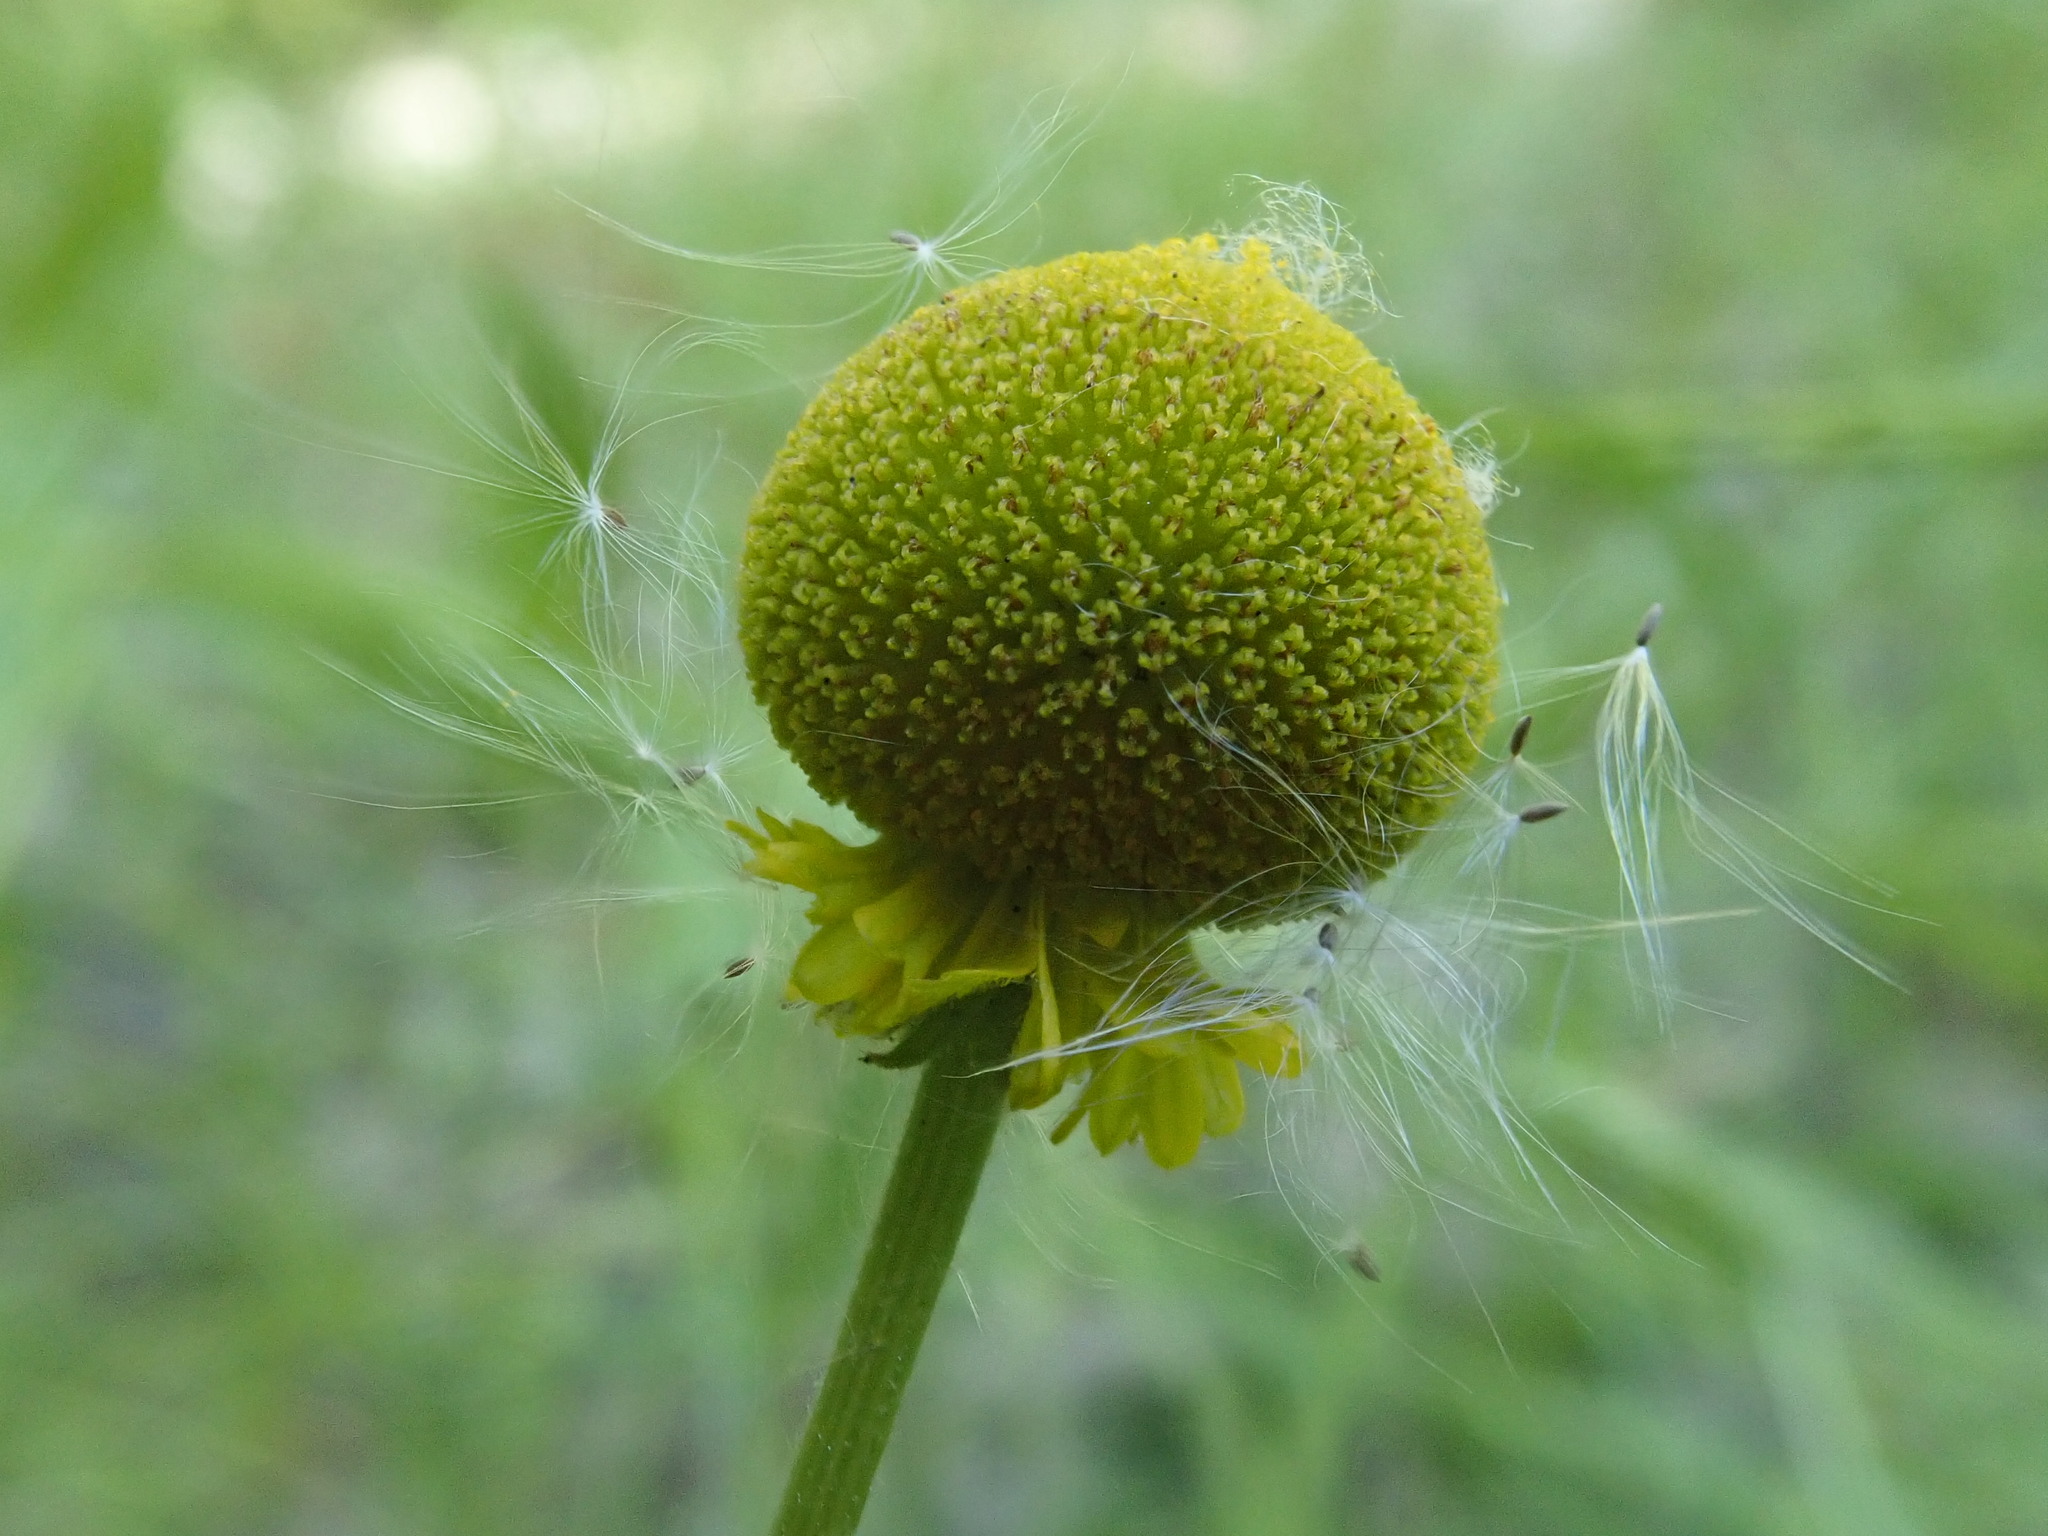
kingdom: Plantae
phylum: Tracheophyta
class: Magnoliopsida
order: Asterales
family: Asteraceae
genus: Helenium
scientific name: Helenium puberulum
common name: Sneezewort
